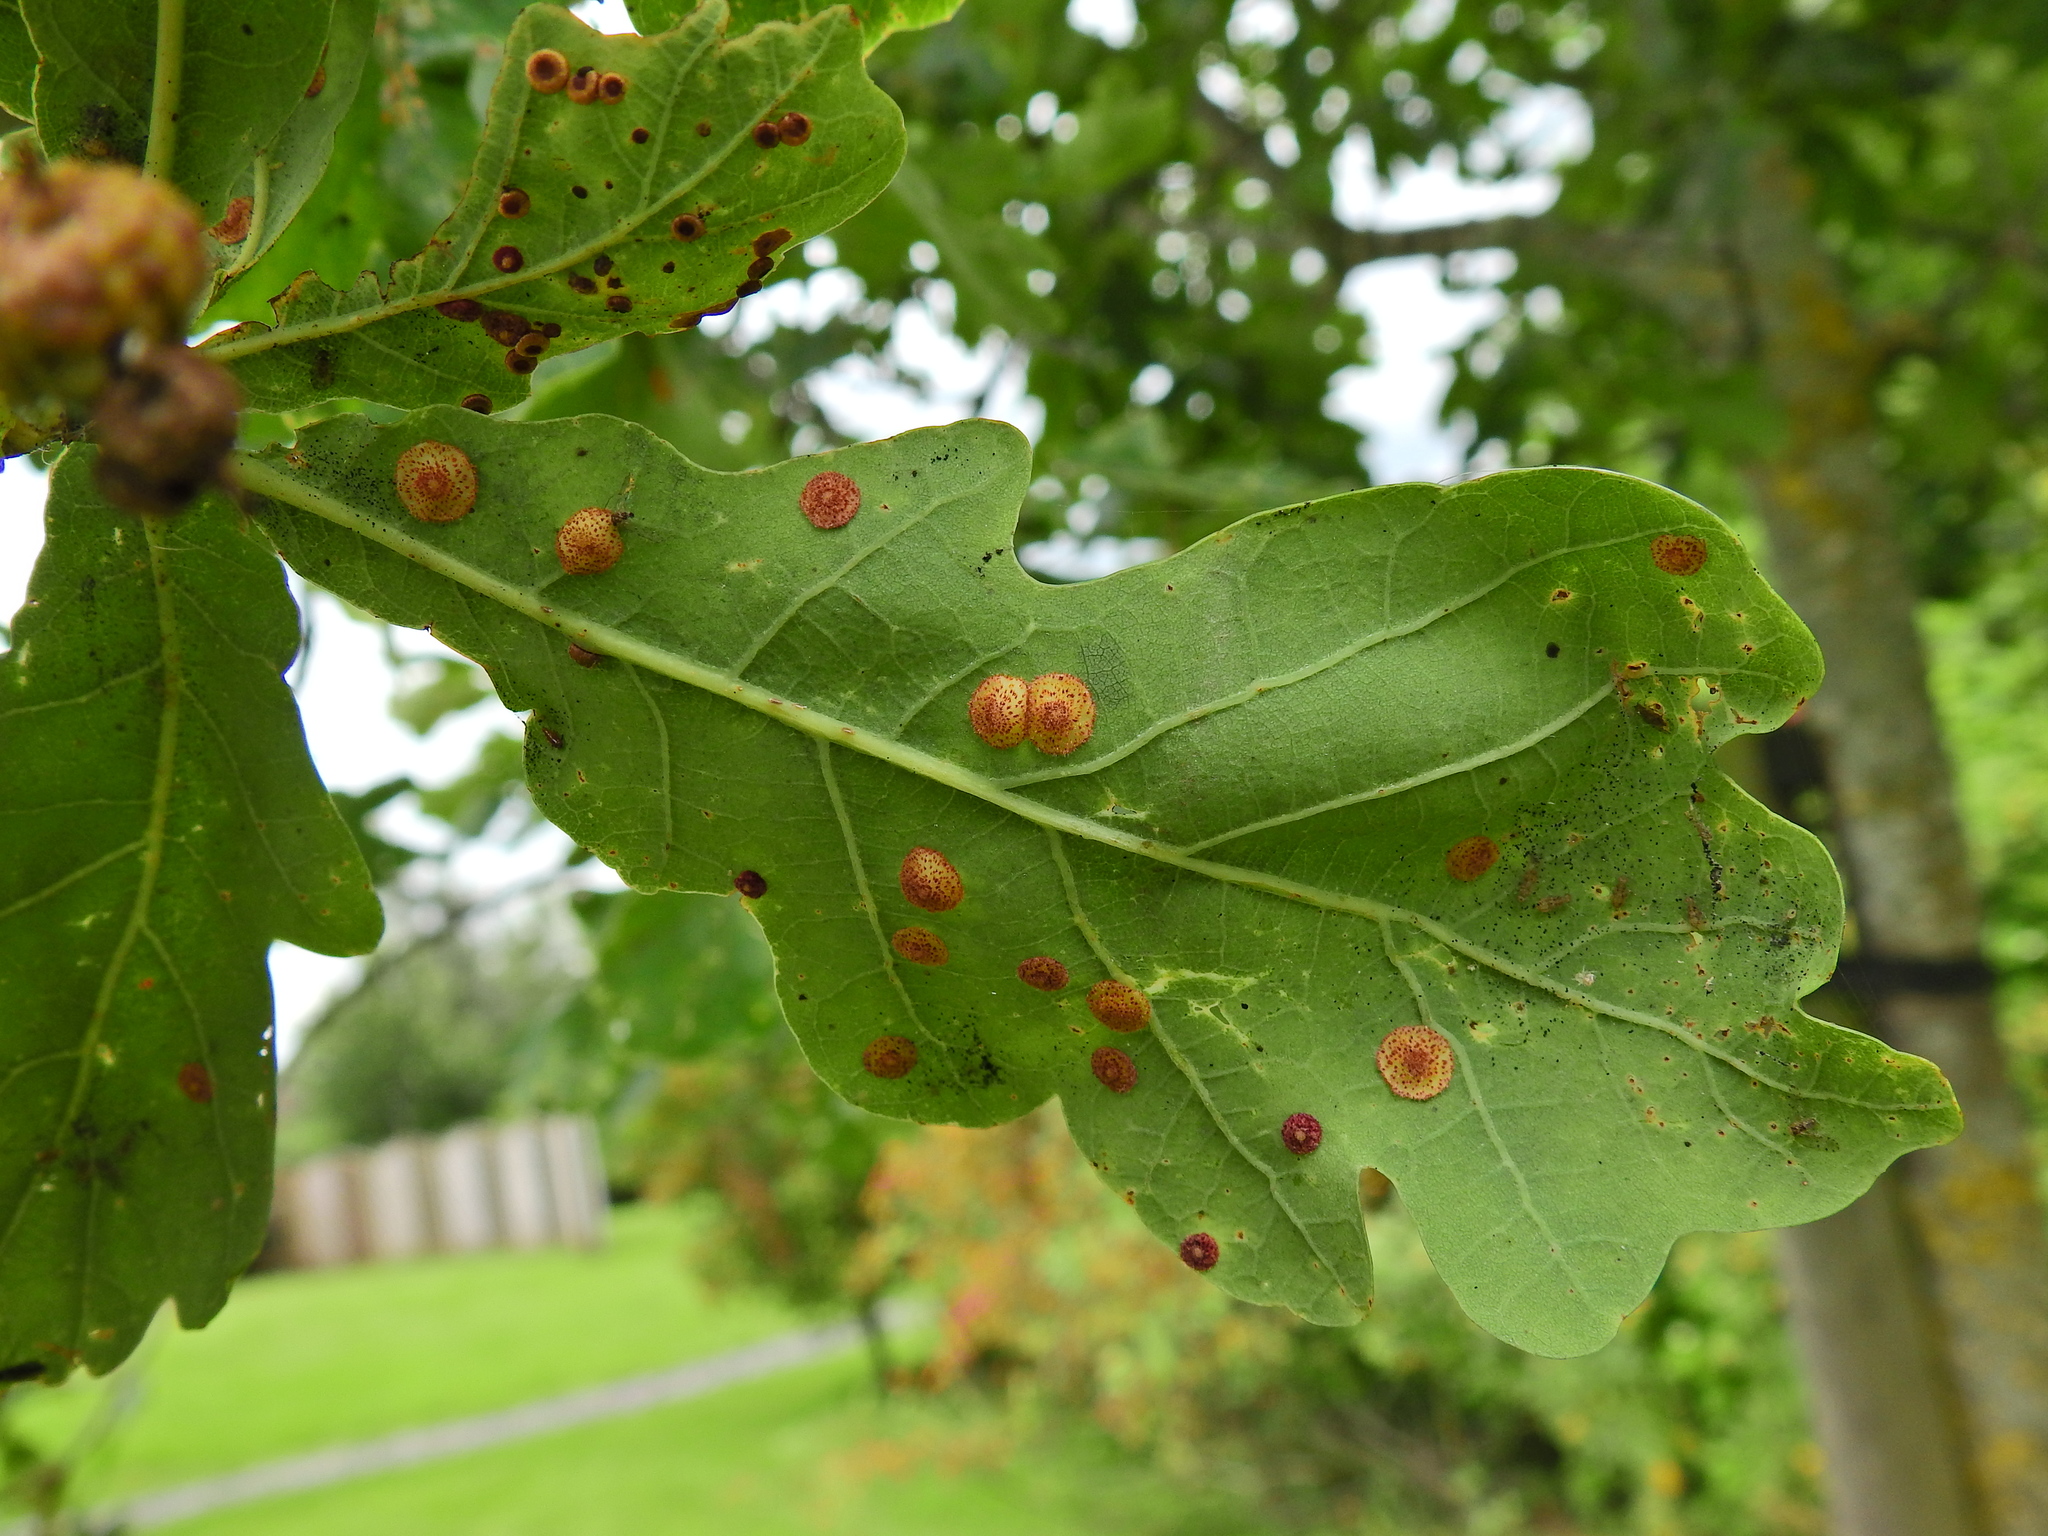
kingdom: Animalia
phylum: Arthropoda
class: Insecta
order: Hymenoptera
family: Cynipidae
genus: Neuroterus
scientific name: Neuroterus quercusbaccarum
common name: Common spangle gall
